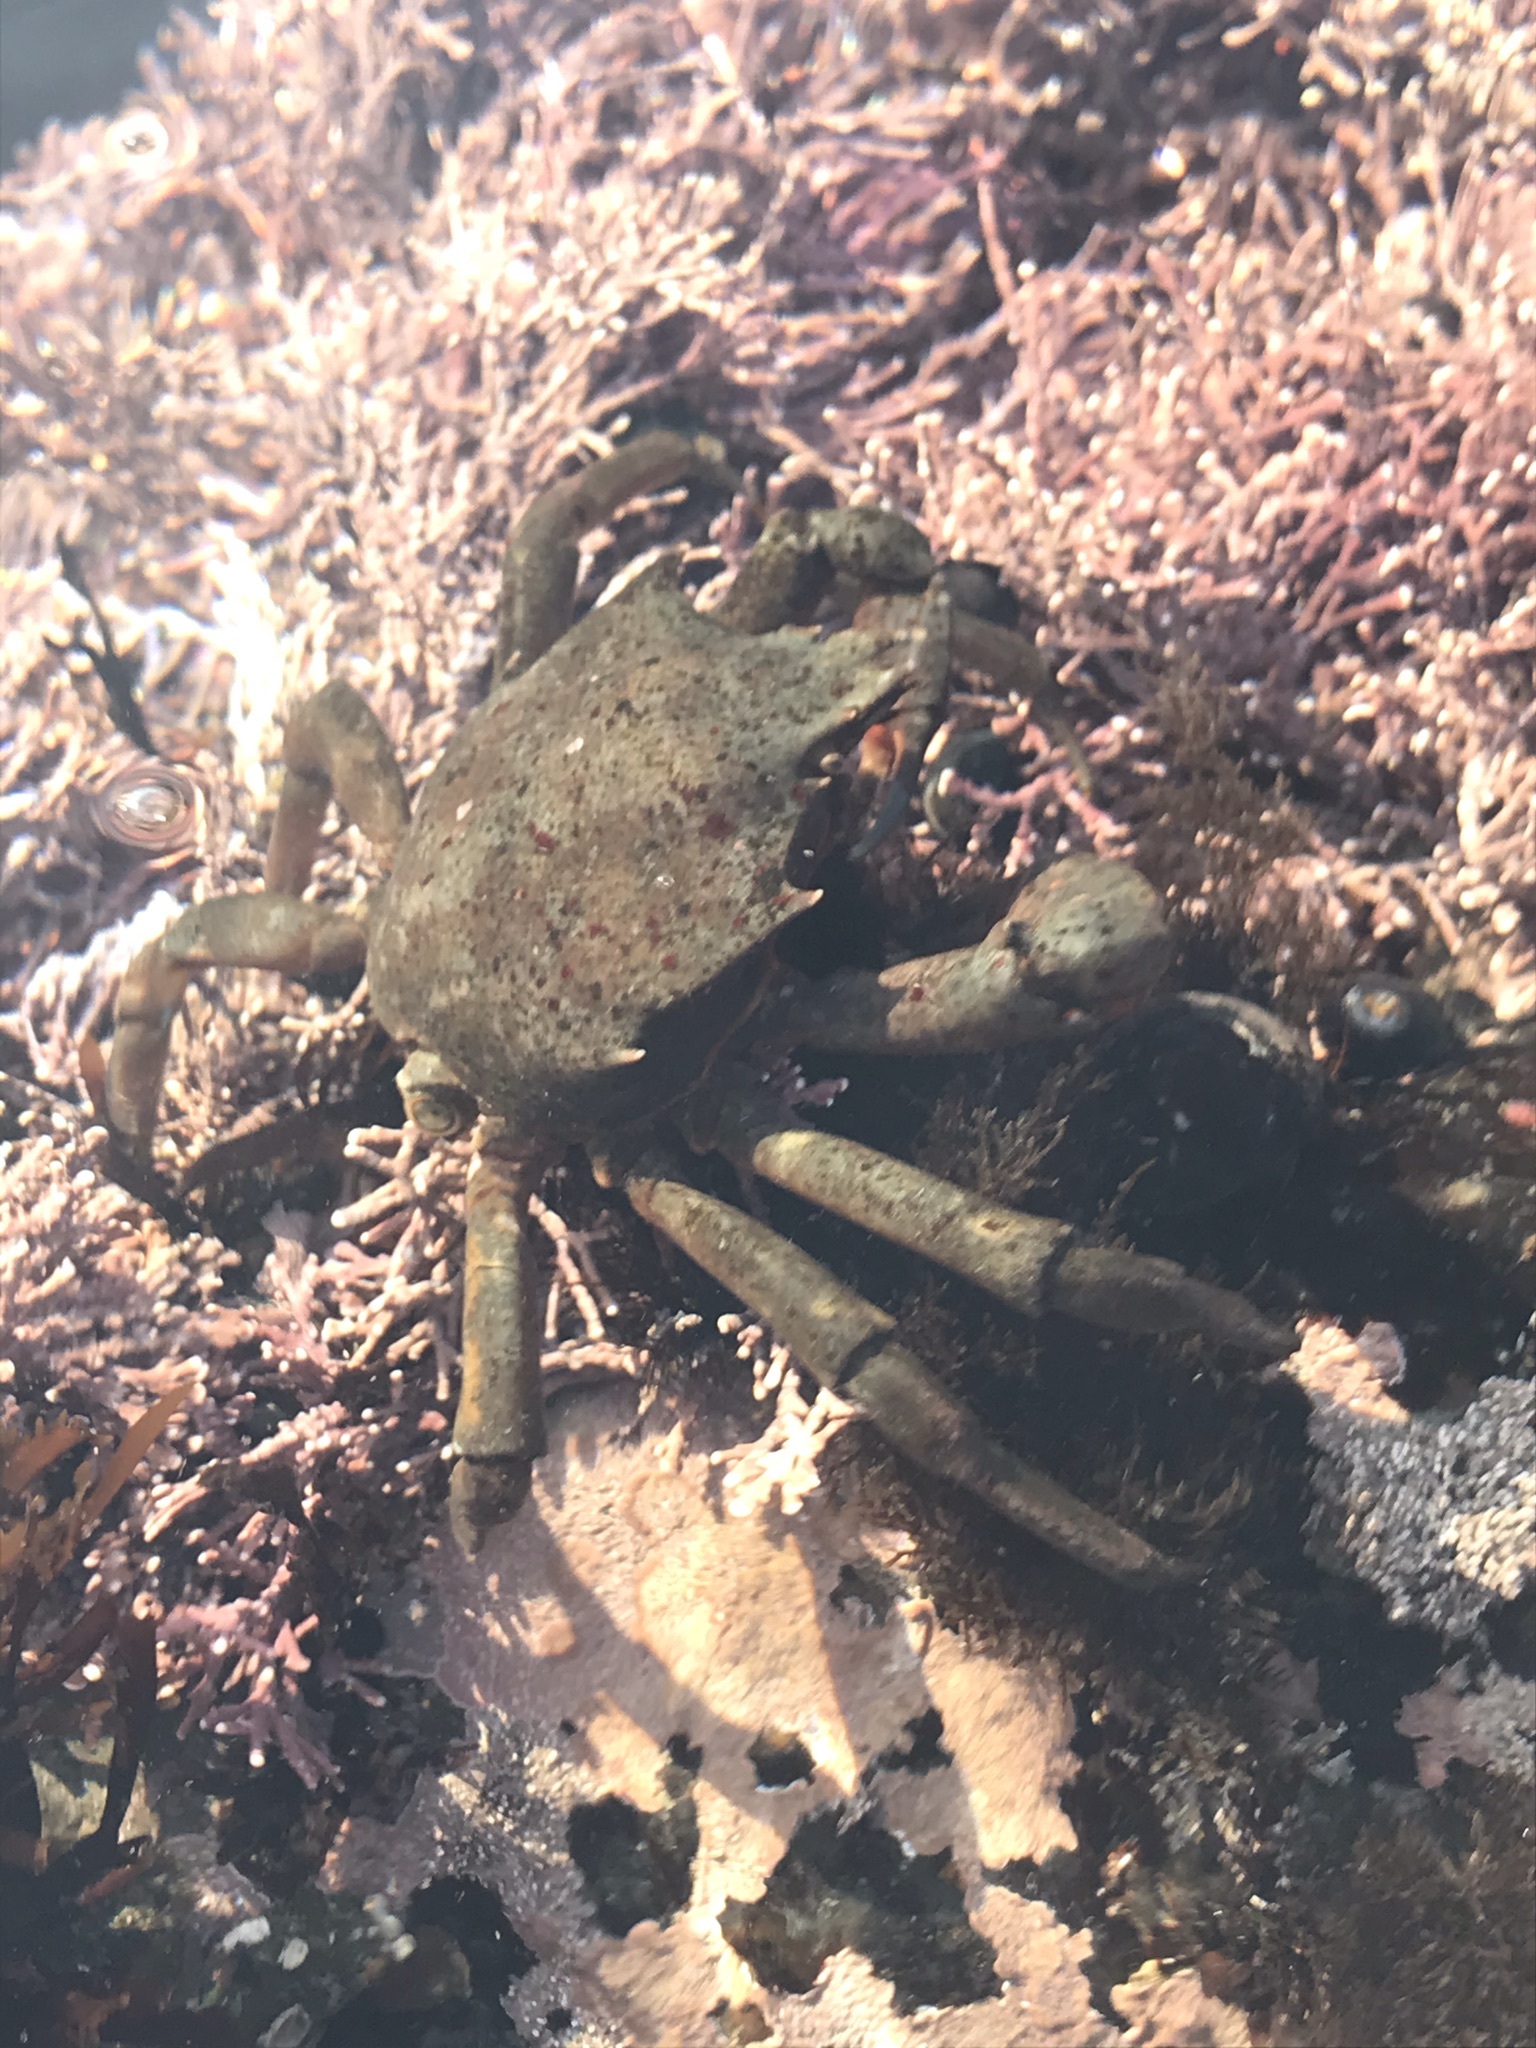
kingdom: Animalia
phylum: Arthropoda
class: Malacostraca
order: Decapoda
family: Epialtidae
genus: Pugettia
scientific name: Pugettia producta
